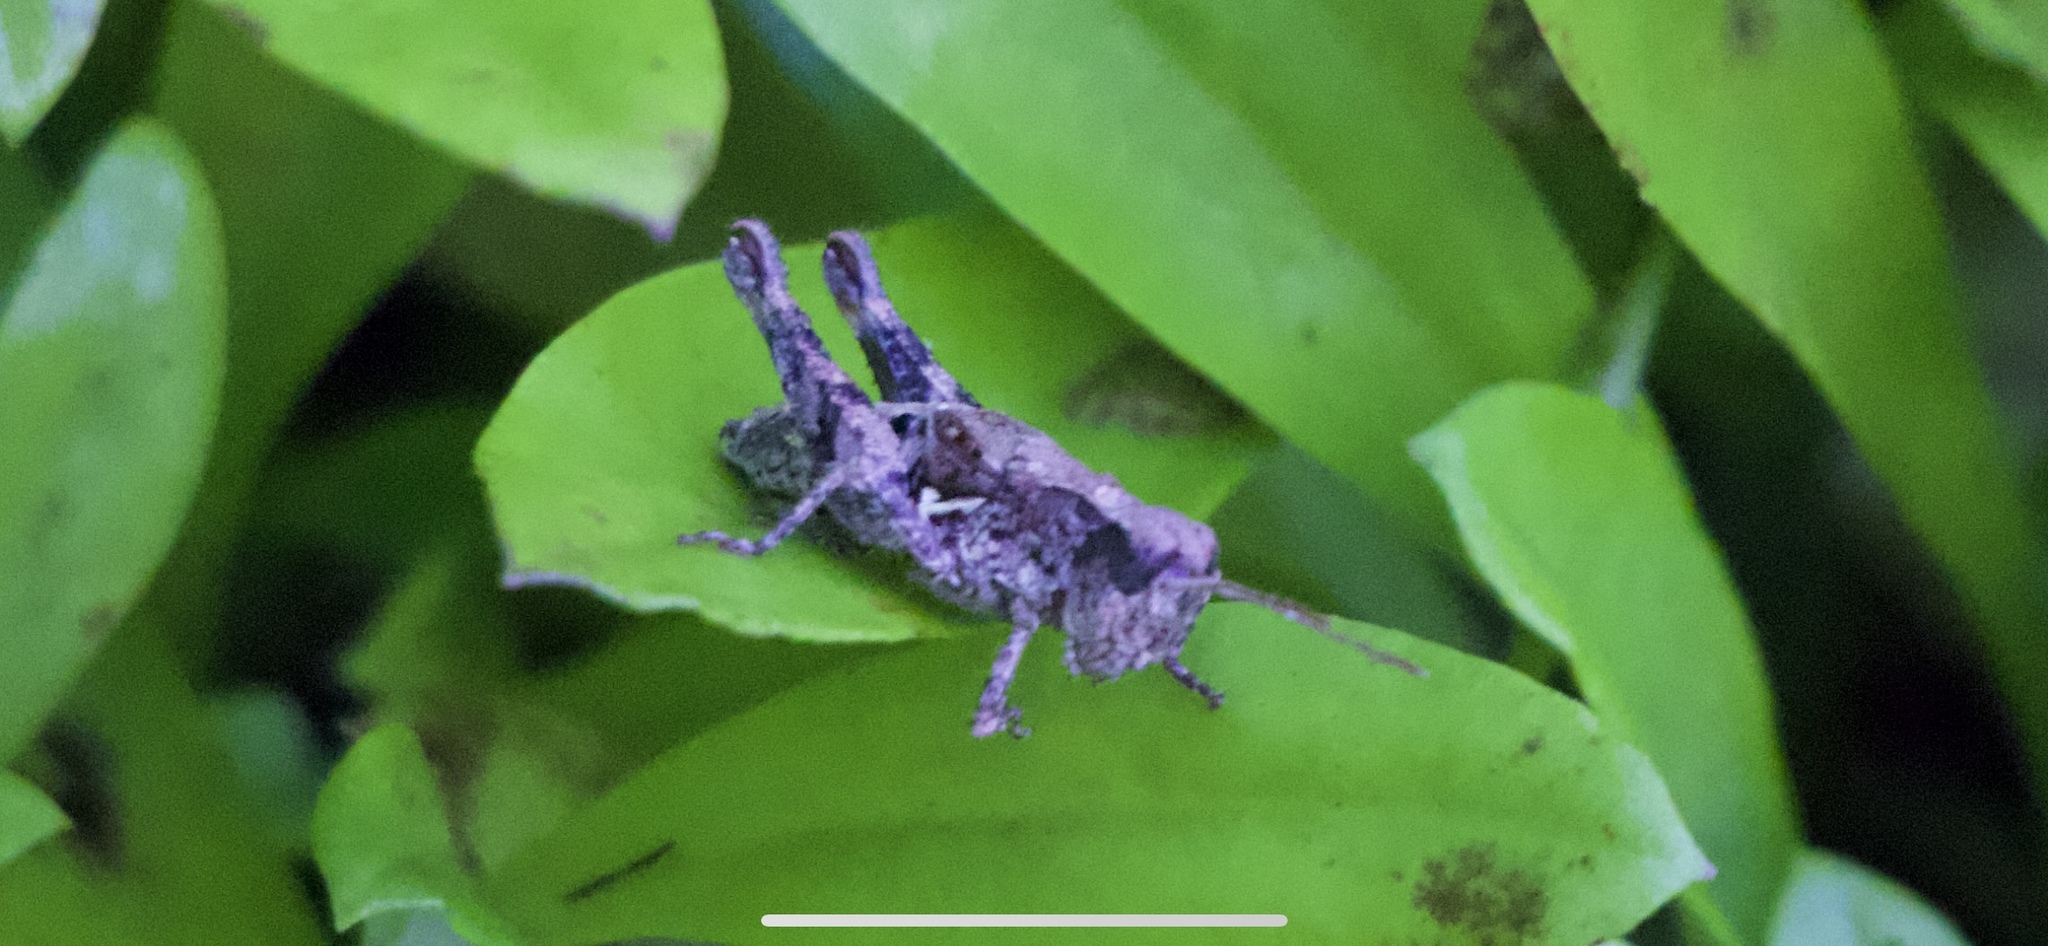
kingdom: Animalia
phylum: Arthropoda
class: Insecta
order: Orthoptera
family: Acrididae
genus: Phaulacridium
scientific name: Phaulacridium marginale
